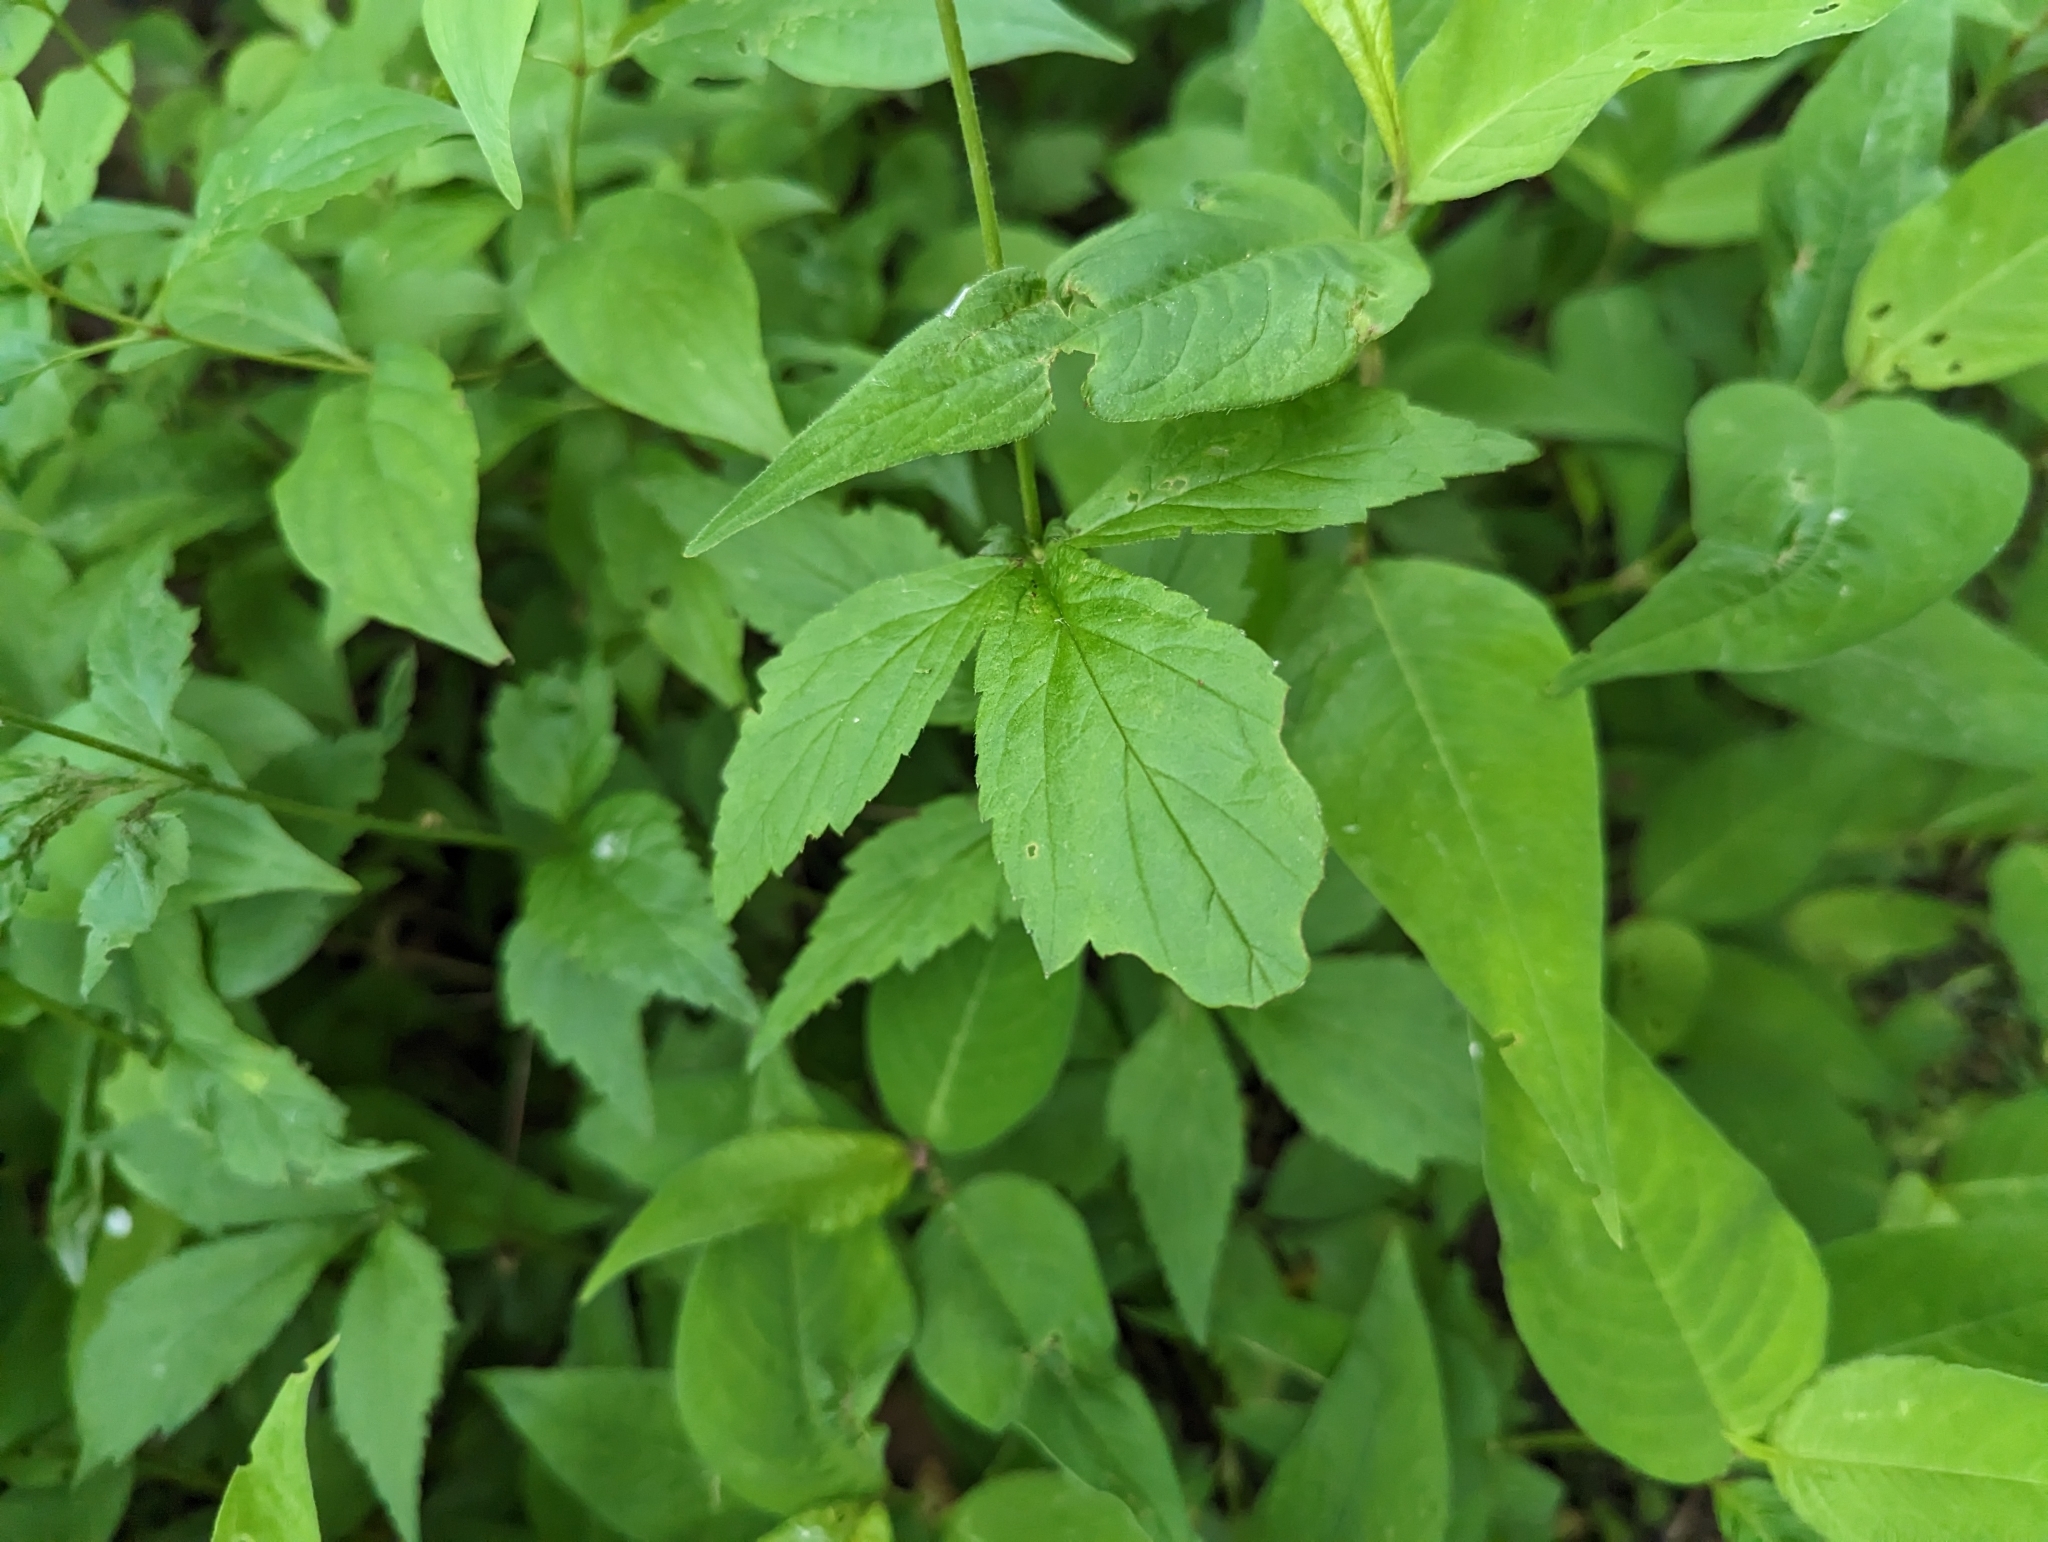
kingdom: Plantae
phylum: Tracheophyta
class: Magnoliopsida
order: Rosales
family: Rosaceae
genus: Geum
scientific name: Geum canadense
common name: White avens
